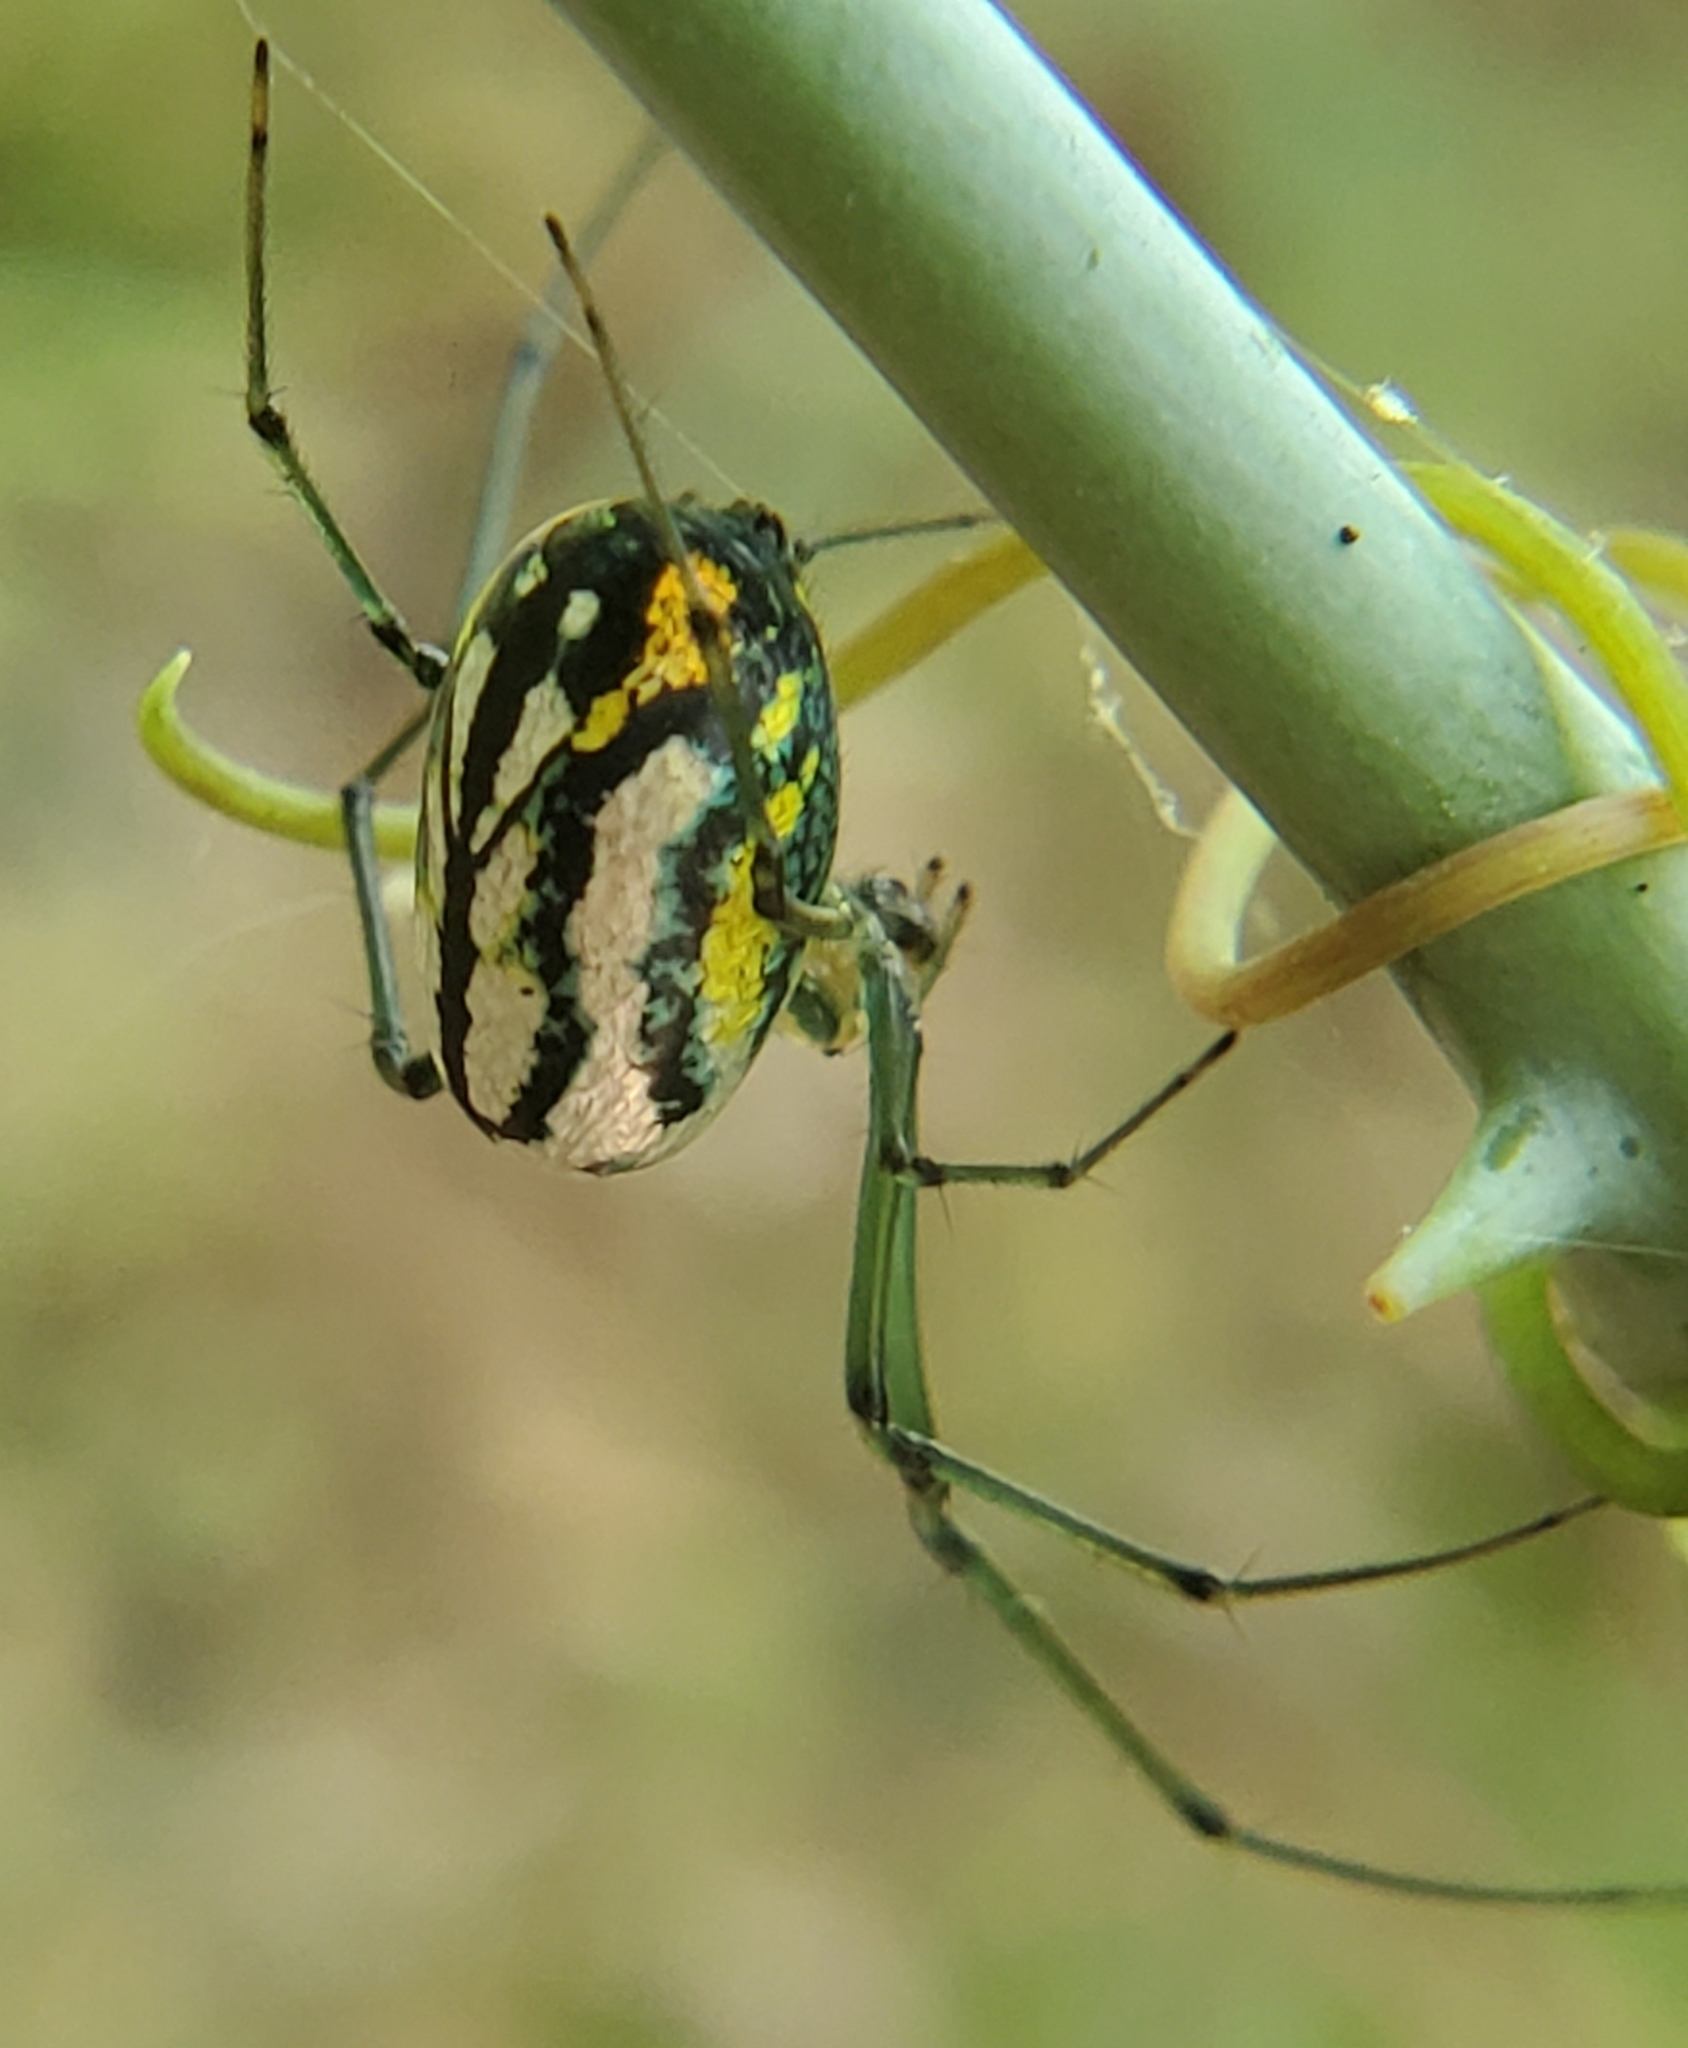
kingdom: Animalia
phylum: Arthropoda
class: Arachnida
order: Araneae
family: Tetragnathidae
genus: Leucauge
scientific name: Leucauge argyrobapta
